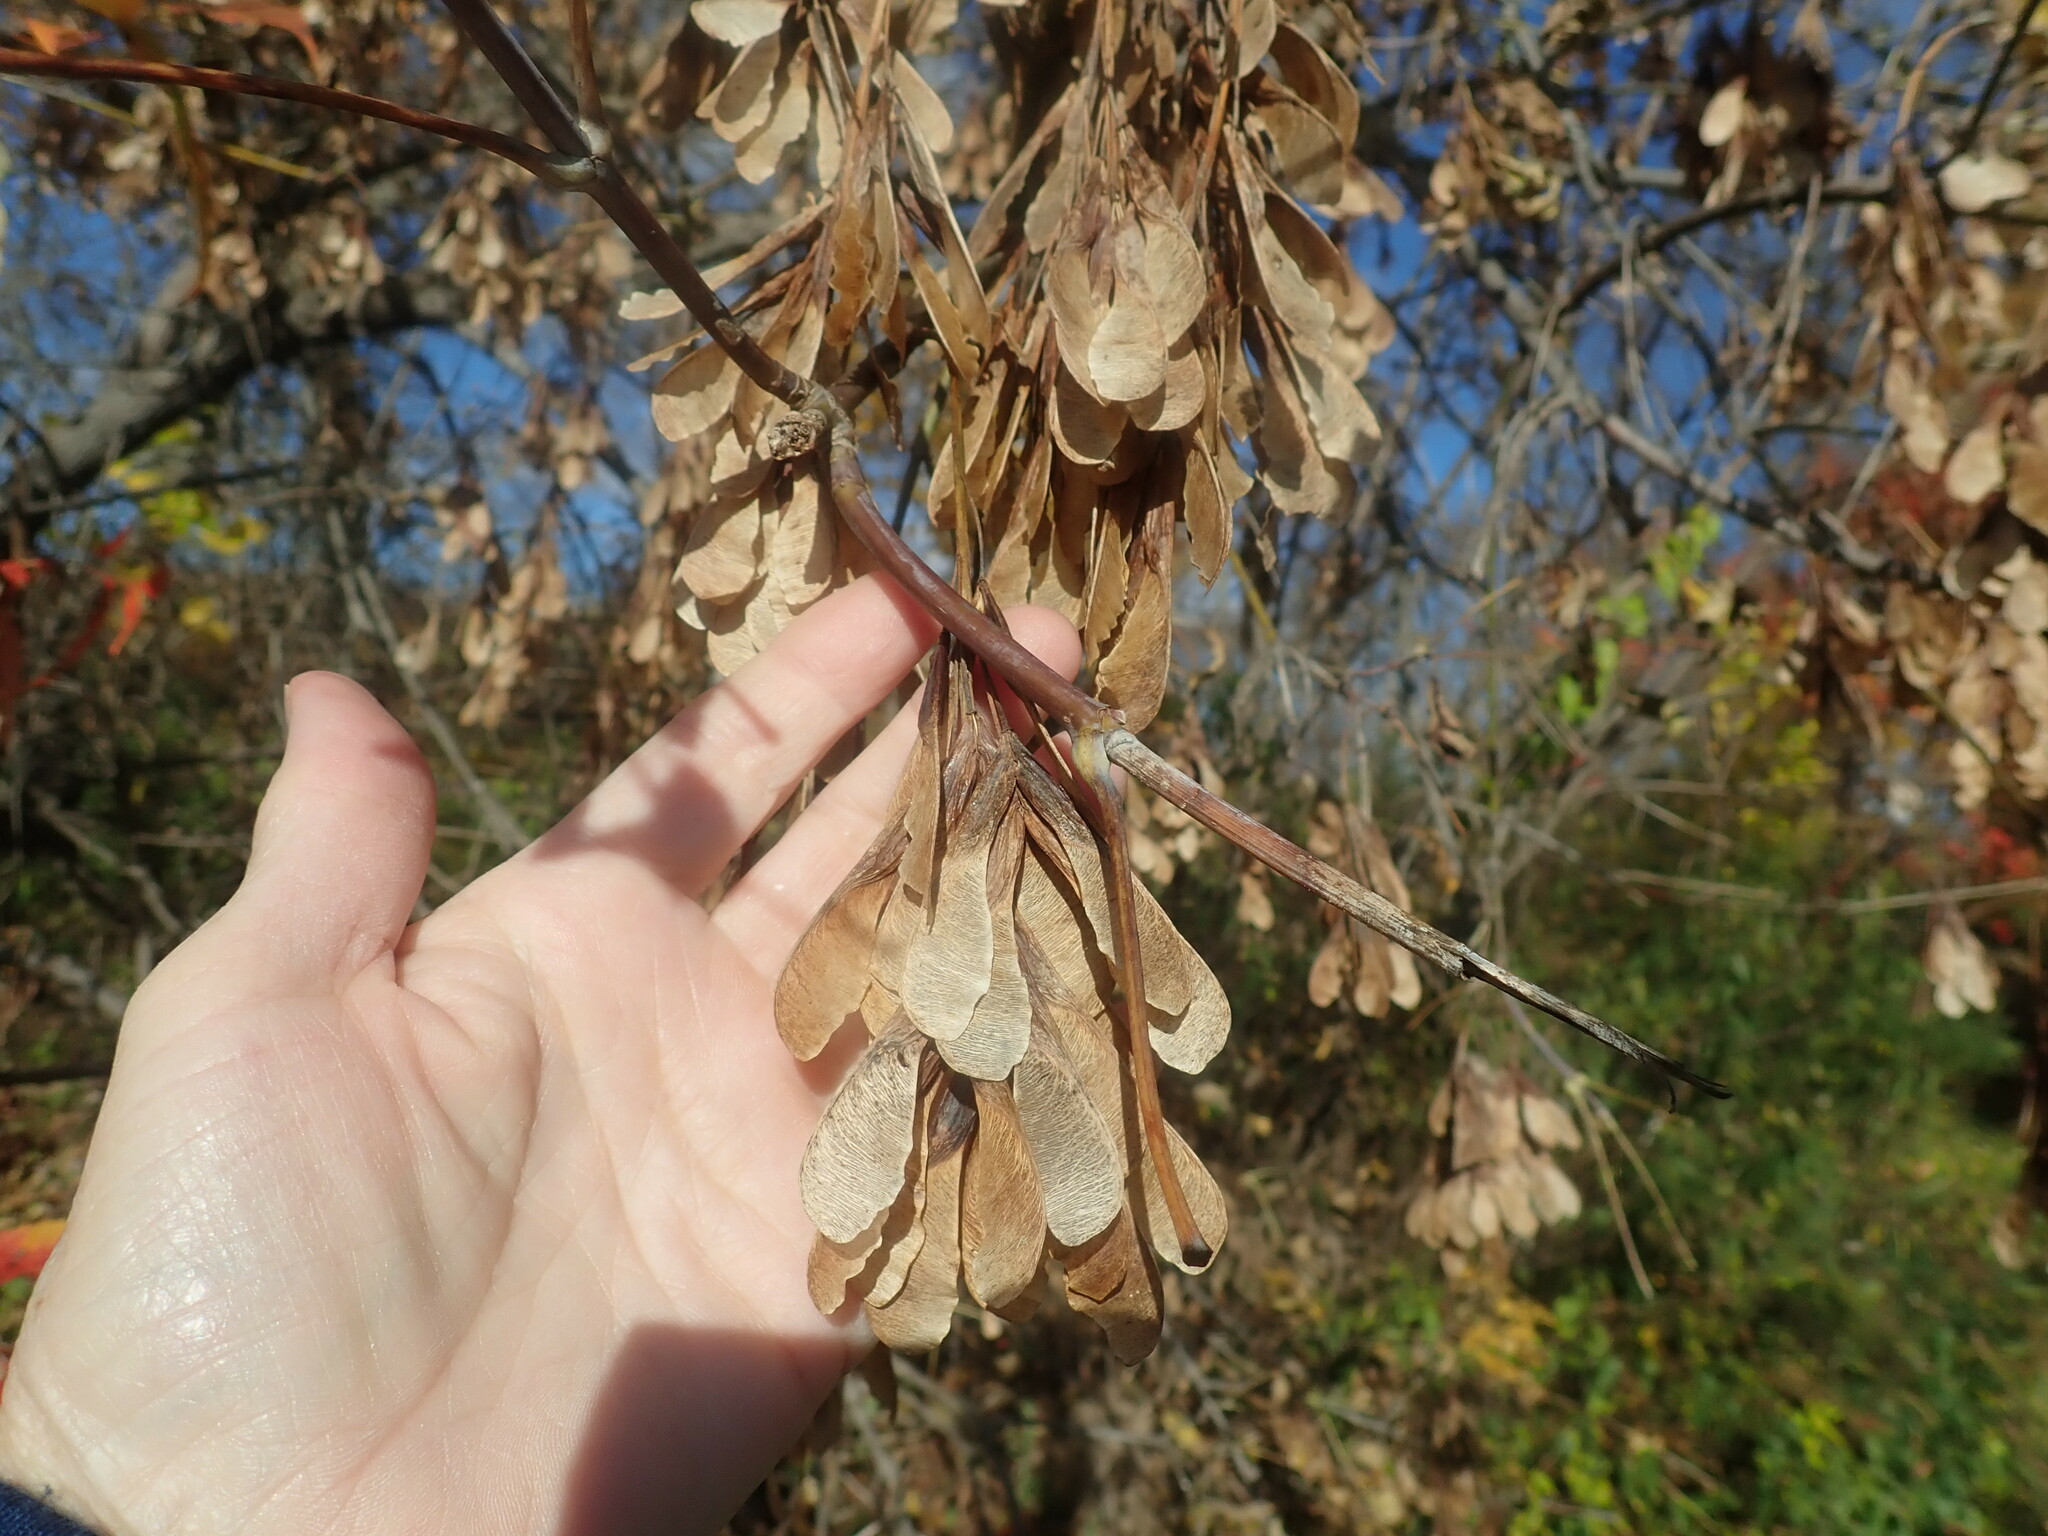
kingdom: Plantae
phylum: Tracheophyta
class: Magnoliopsida
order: Sapindales
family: Sapindaceae
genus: Acer
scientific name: Acer negundo
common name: Ashleaf maple
